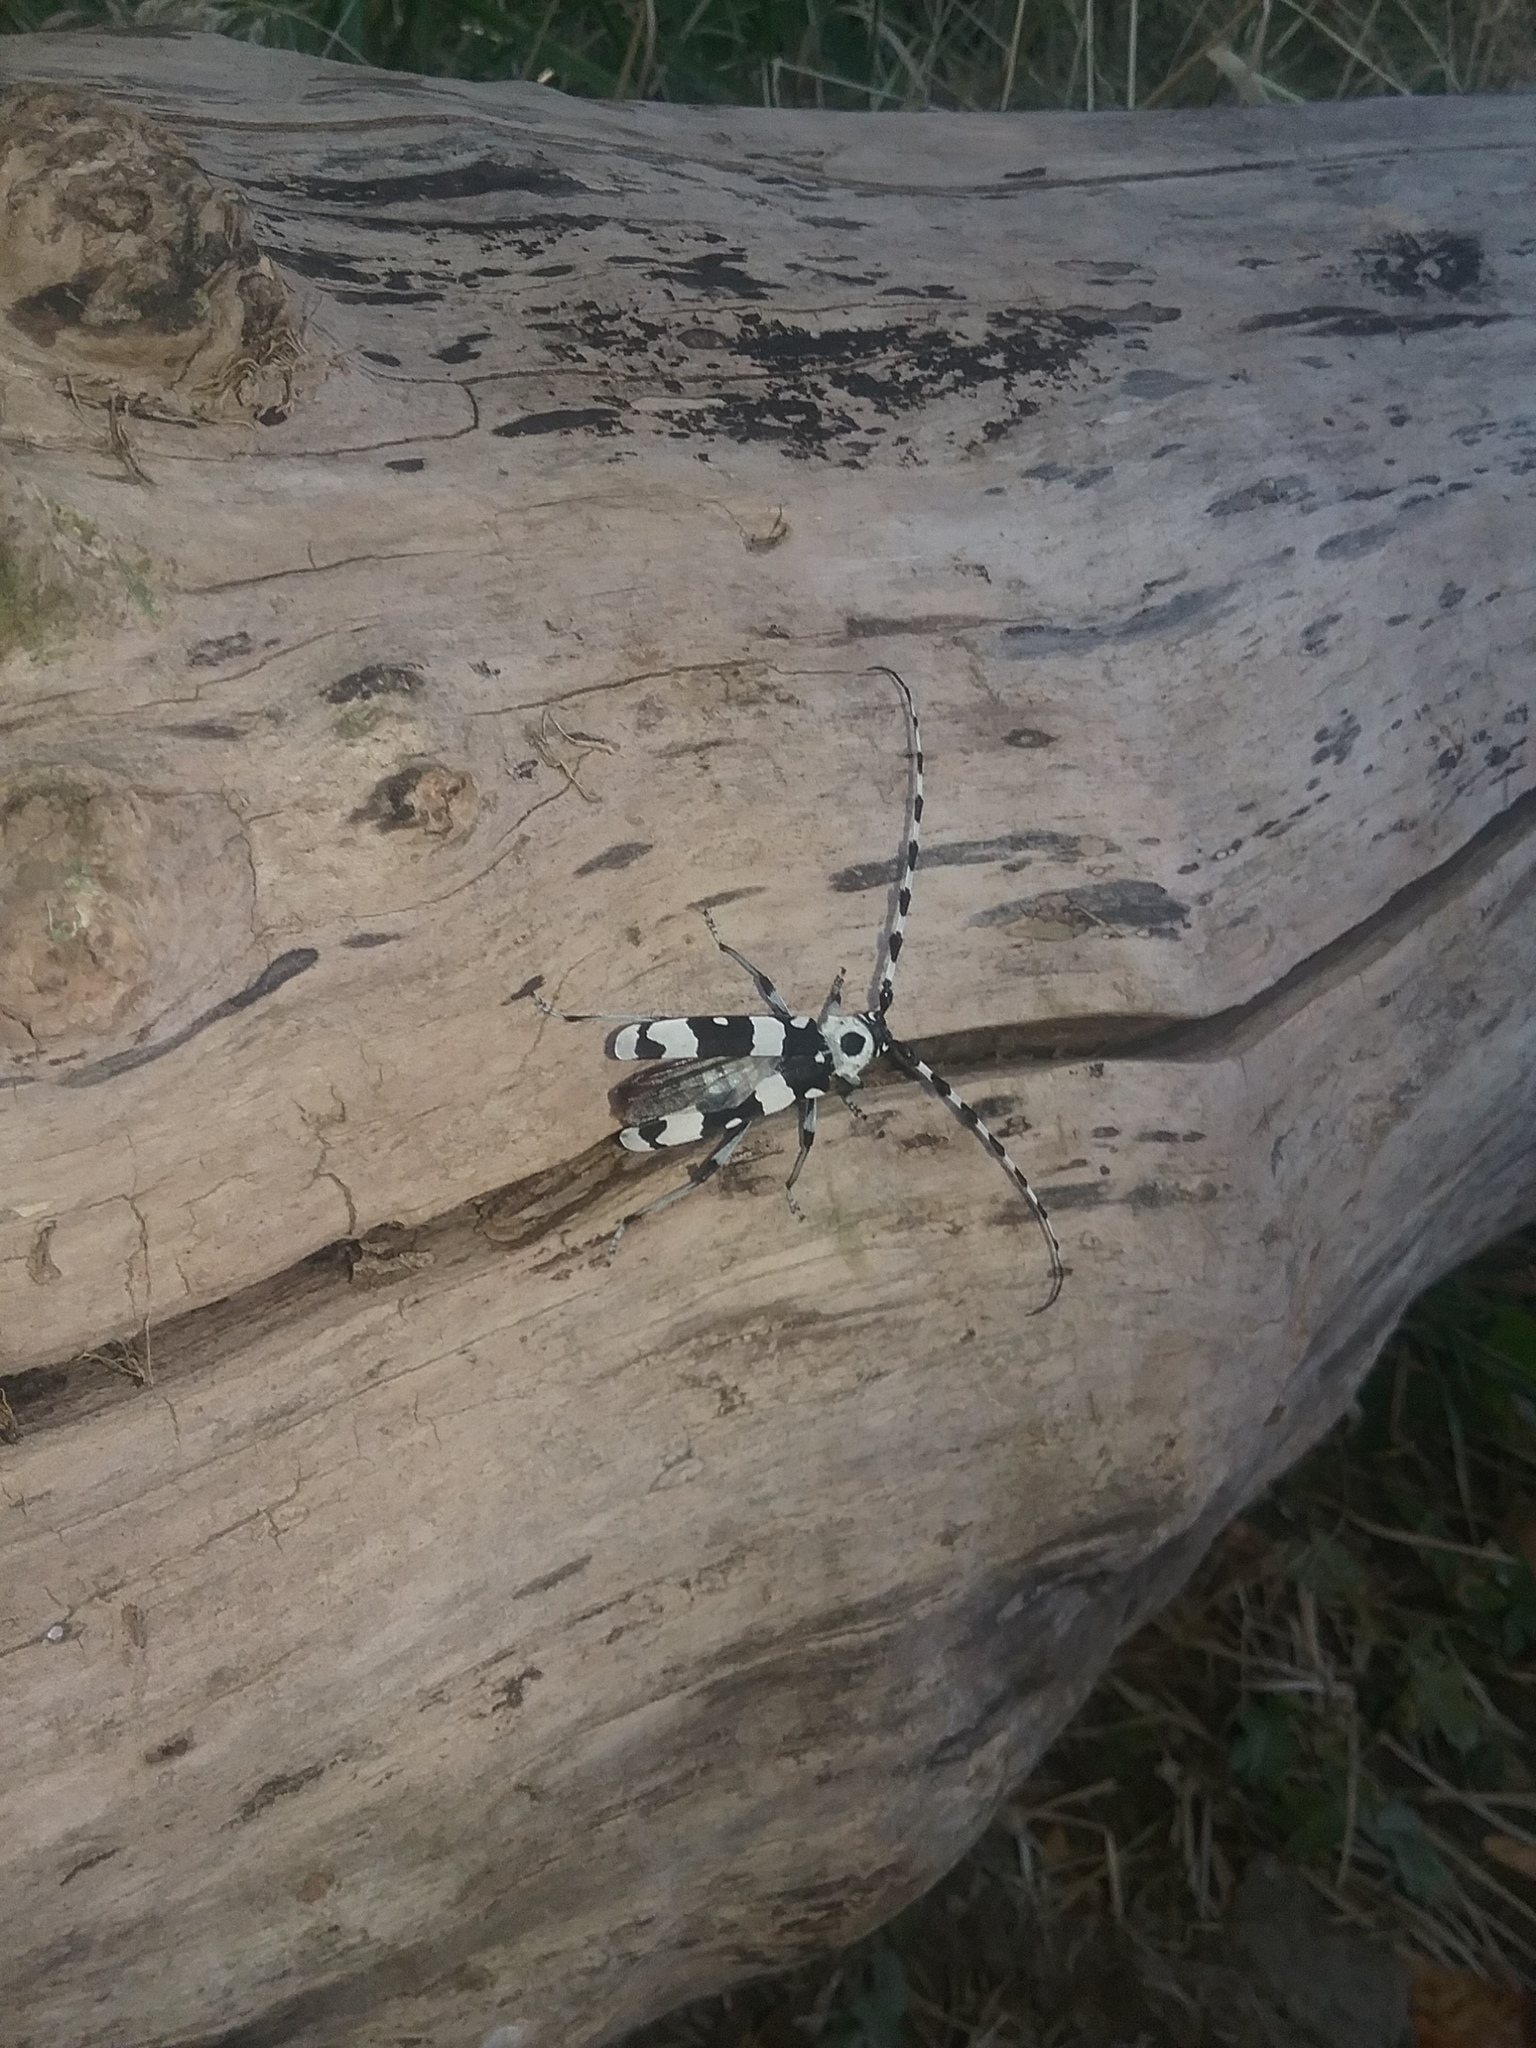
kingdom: Animalia
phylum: Arthropoda
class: Insecta
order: Coleoptera
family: Cerambycidae
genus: Rosalia
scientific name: Rosalia funebris
